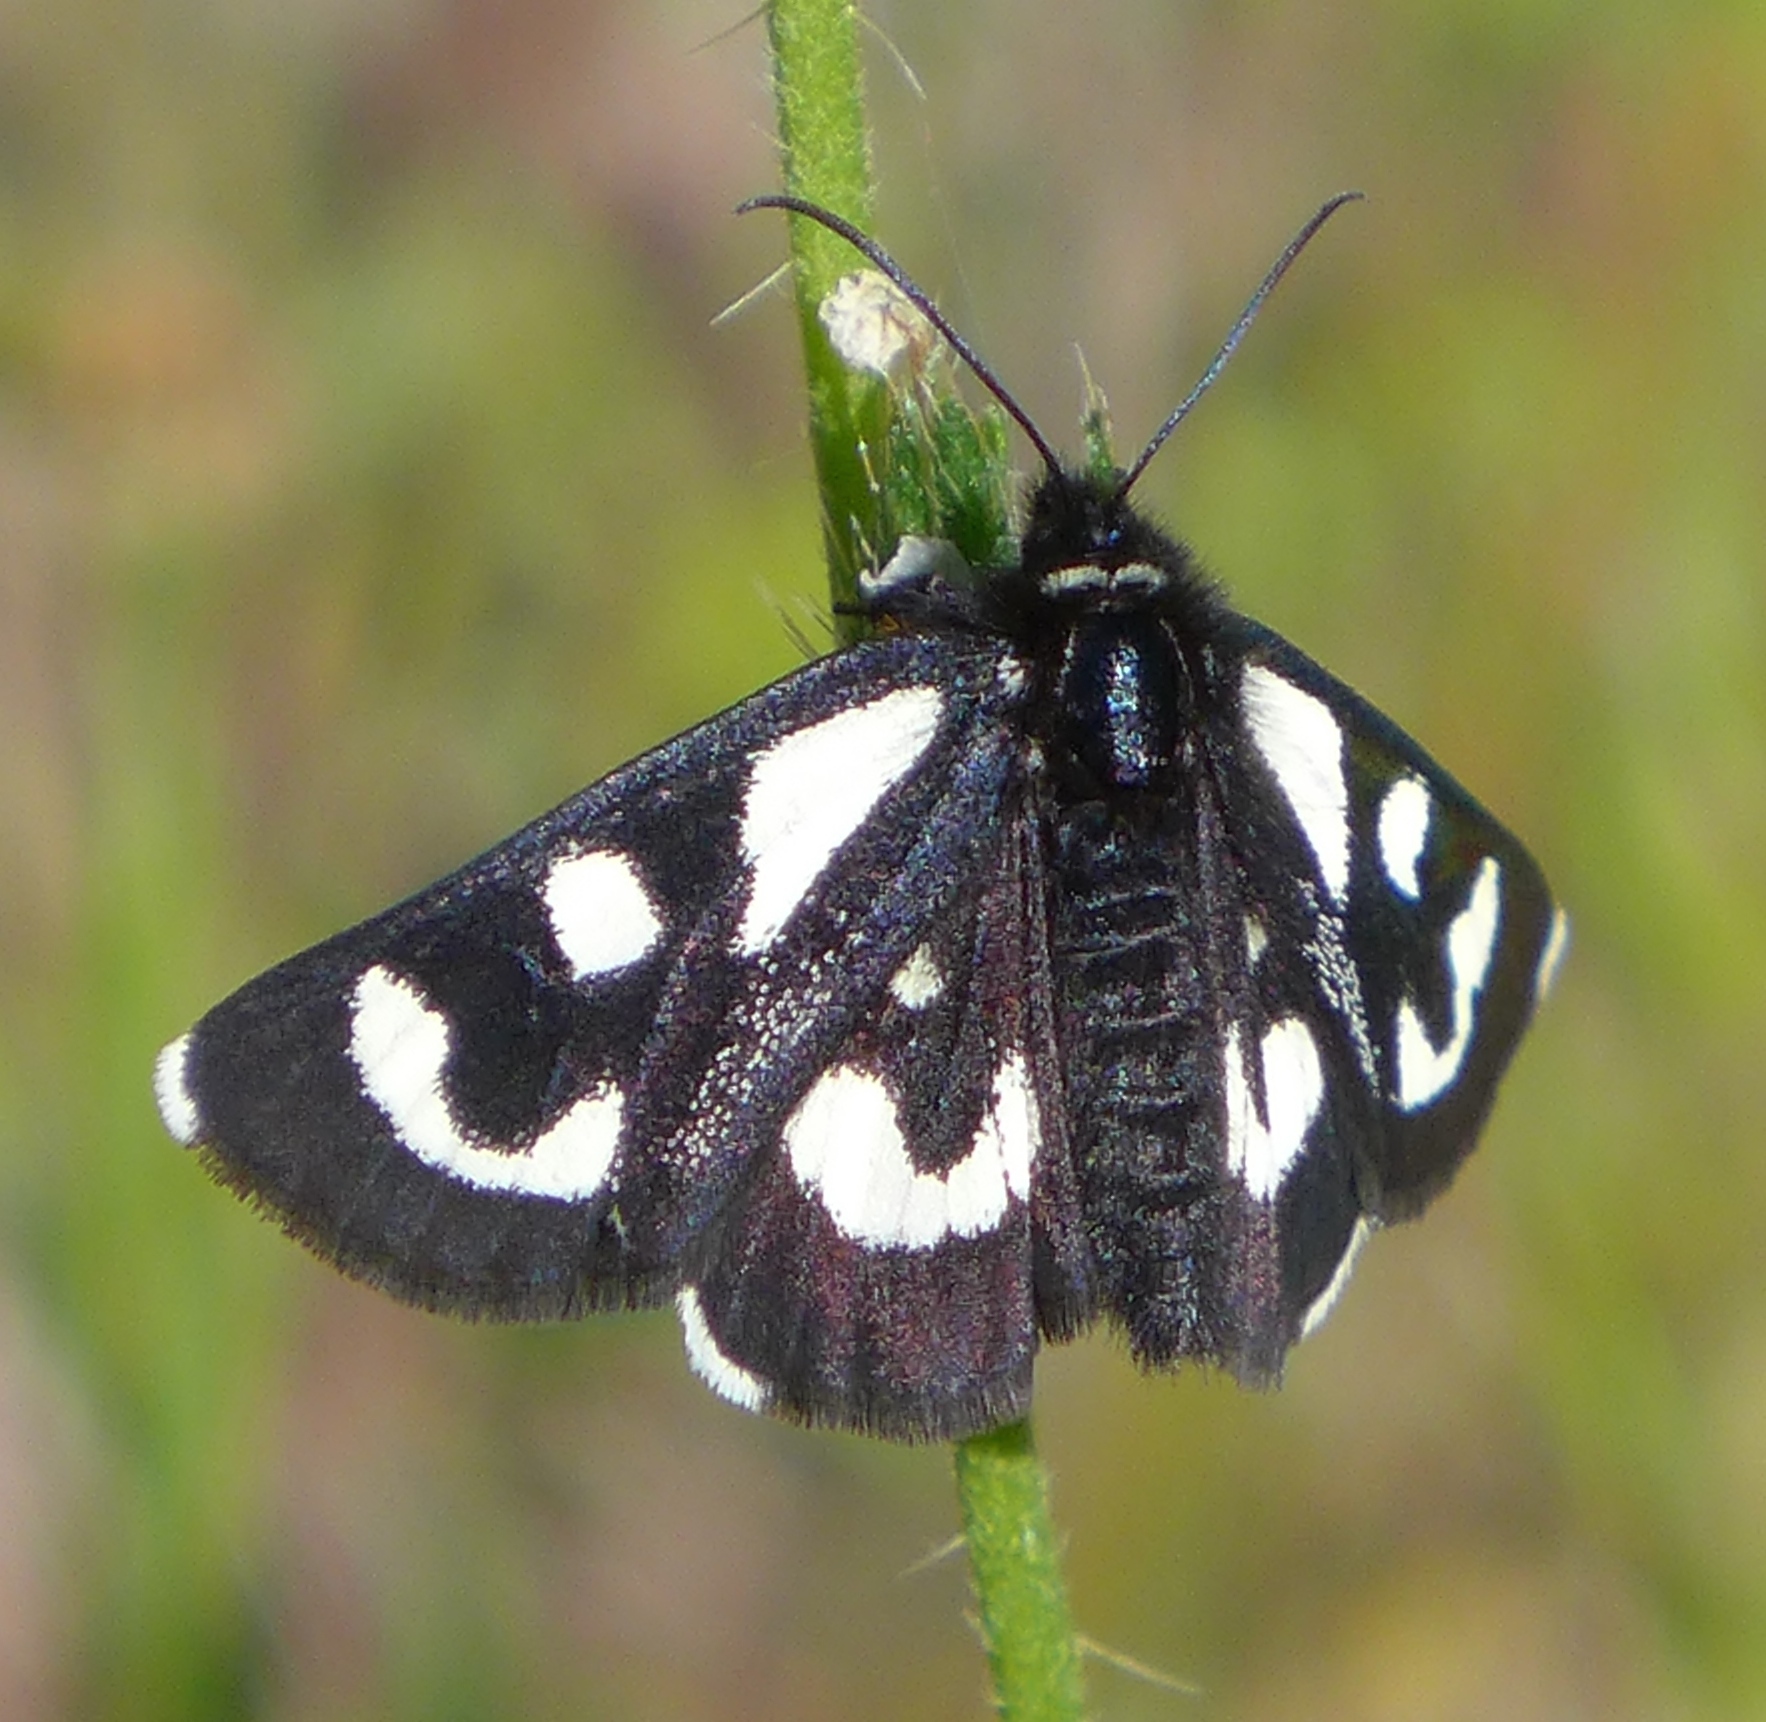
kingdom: Animalia
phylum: Arthropoda
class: Insecta
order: Lepidoptera
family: Noctuidae
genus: Alypia
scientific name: Alypia mariposa
